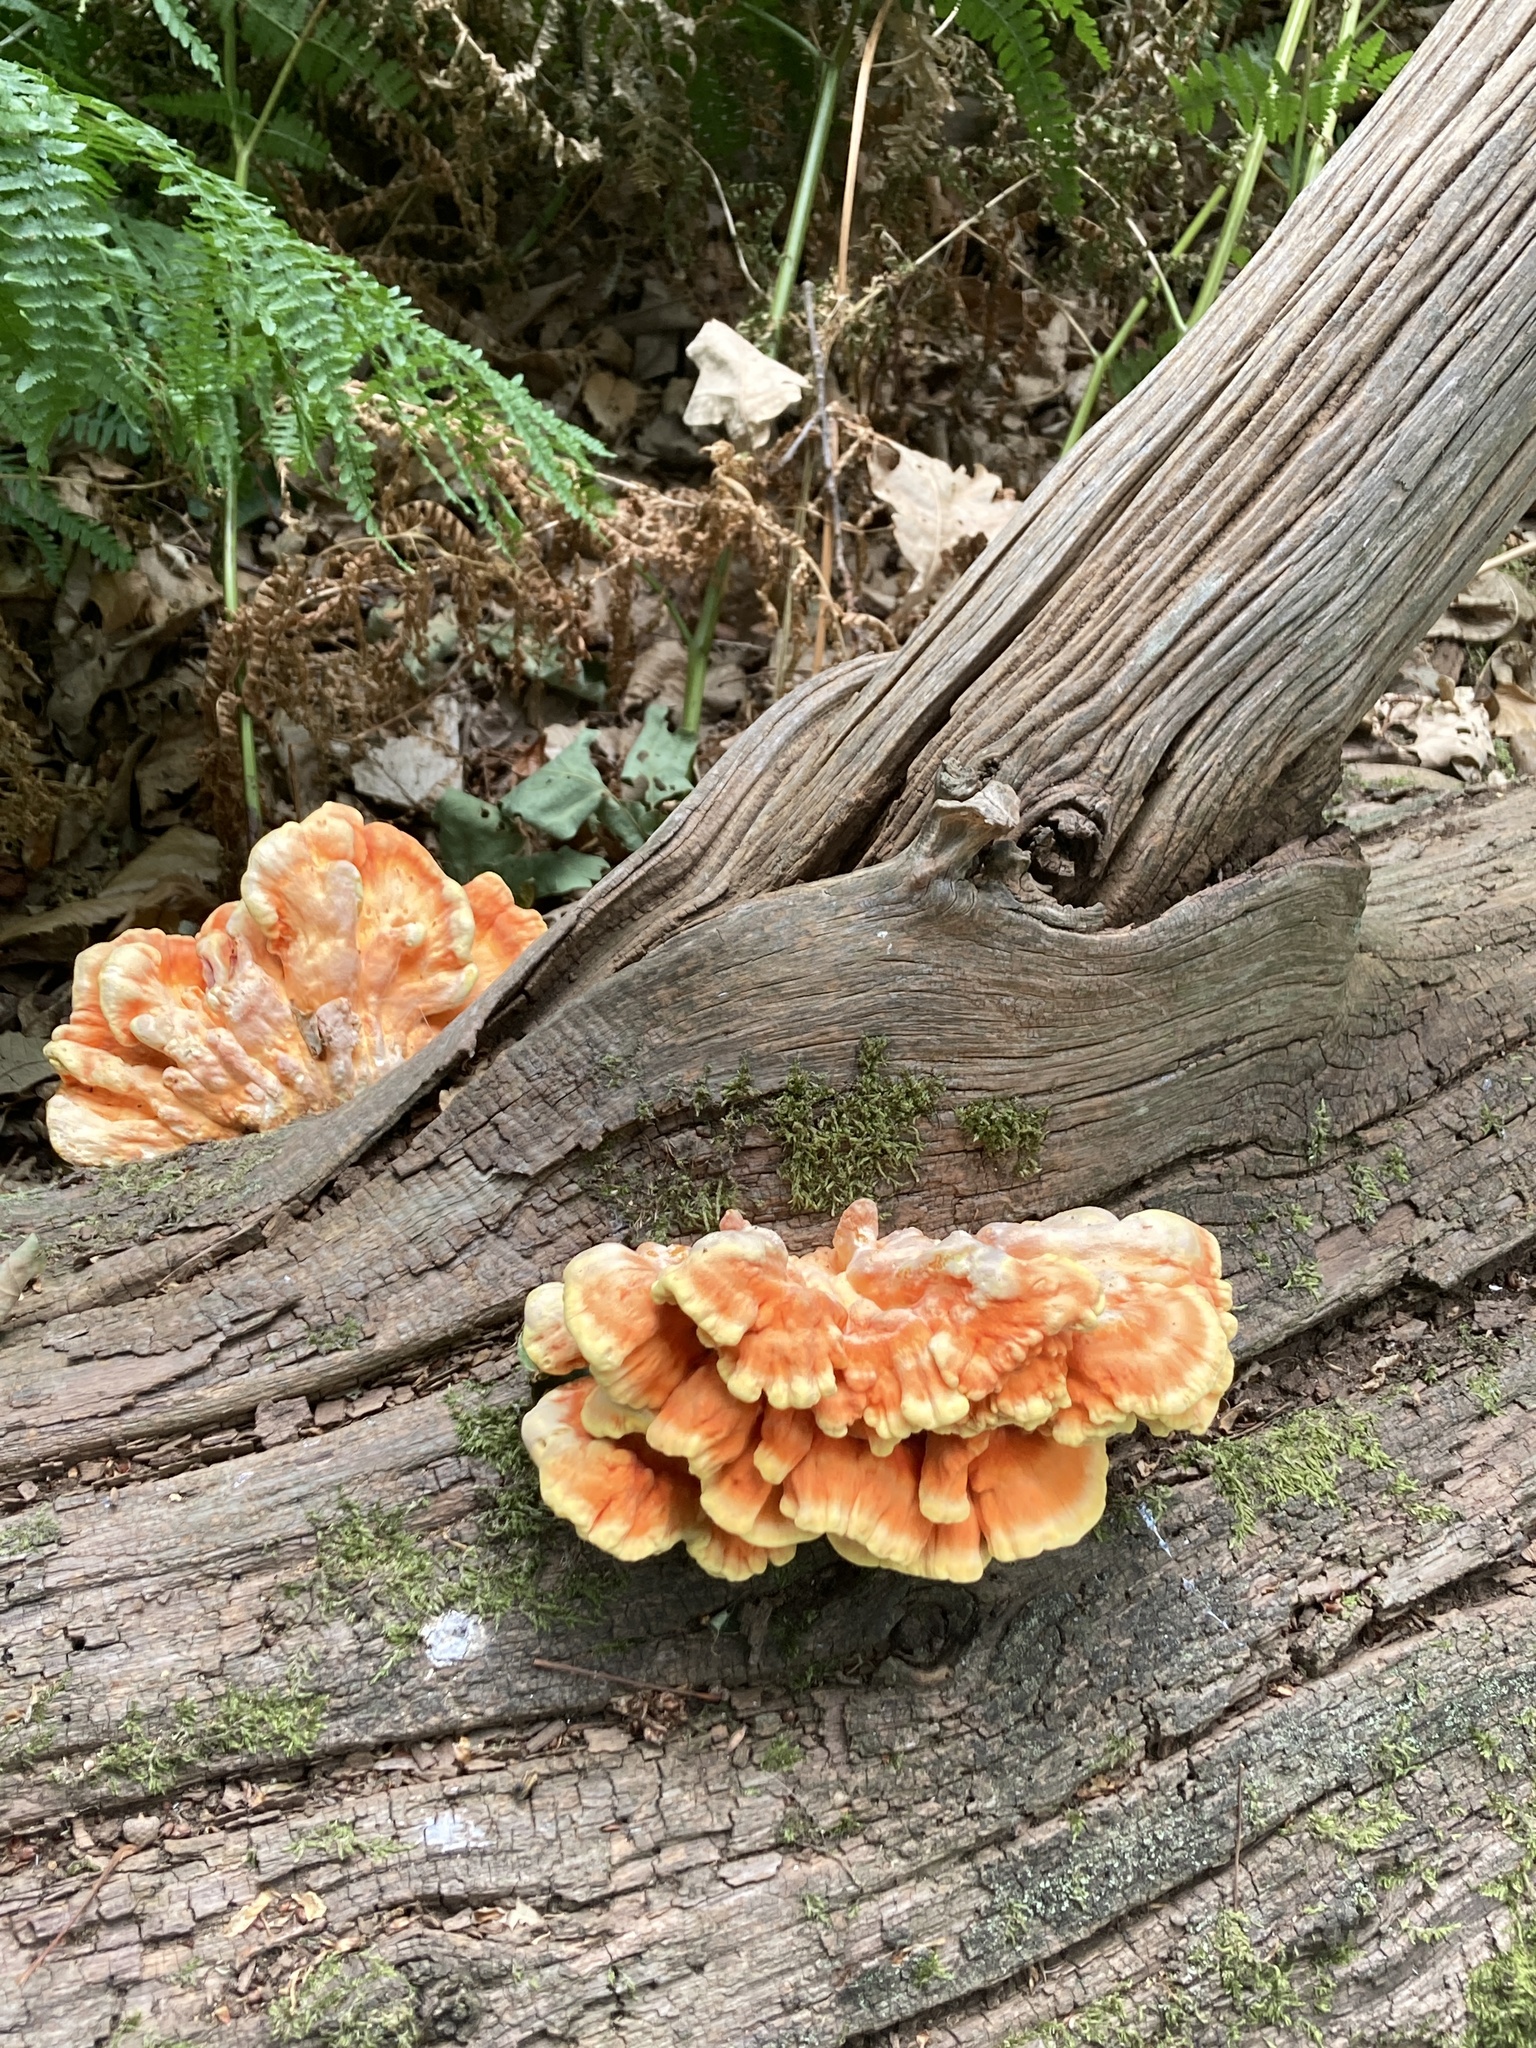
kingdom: Fungi
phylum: Basidiomycota
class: Agaricomycetes
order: Polyporales
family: Laetiporaceae
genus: Laetiporus
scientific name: Laetiporus sulphureus
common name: Chicken of the woods
